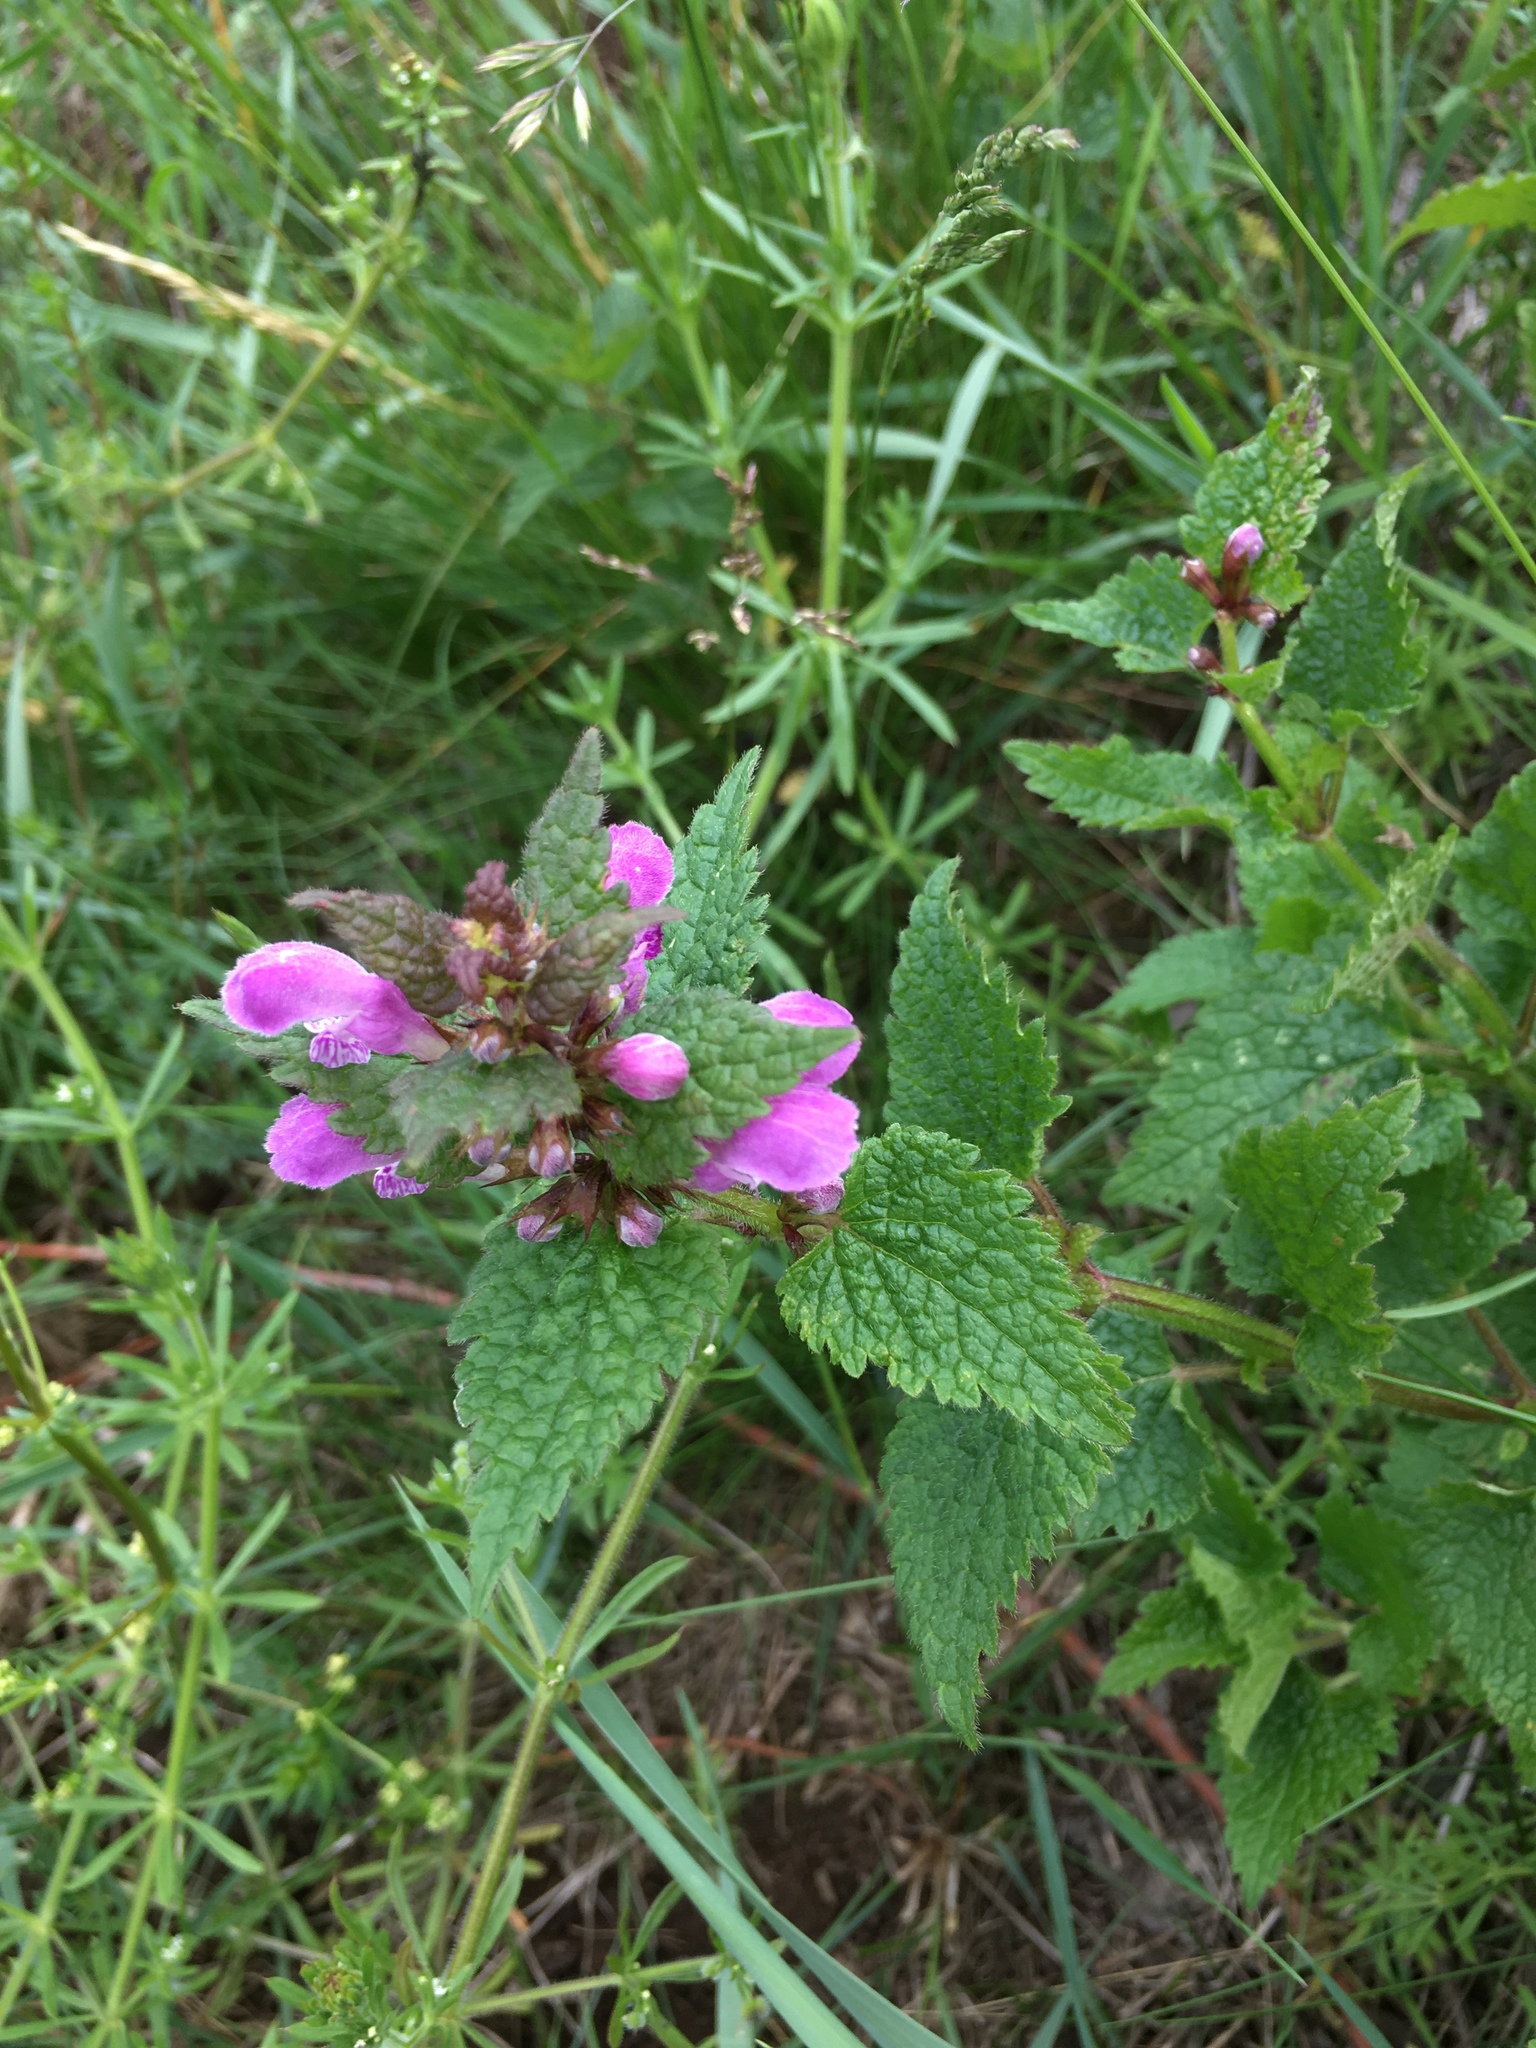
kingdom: Plantae
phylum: Tracheophyta
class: Magnoliopsida
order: Lamiales
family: Lamiaceae
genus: Lamium
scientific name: Lamium maculatum
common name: Spotted dead-nettle
